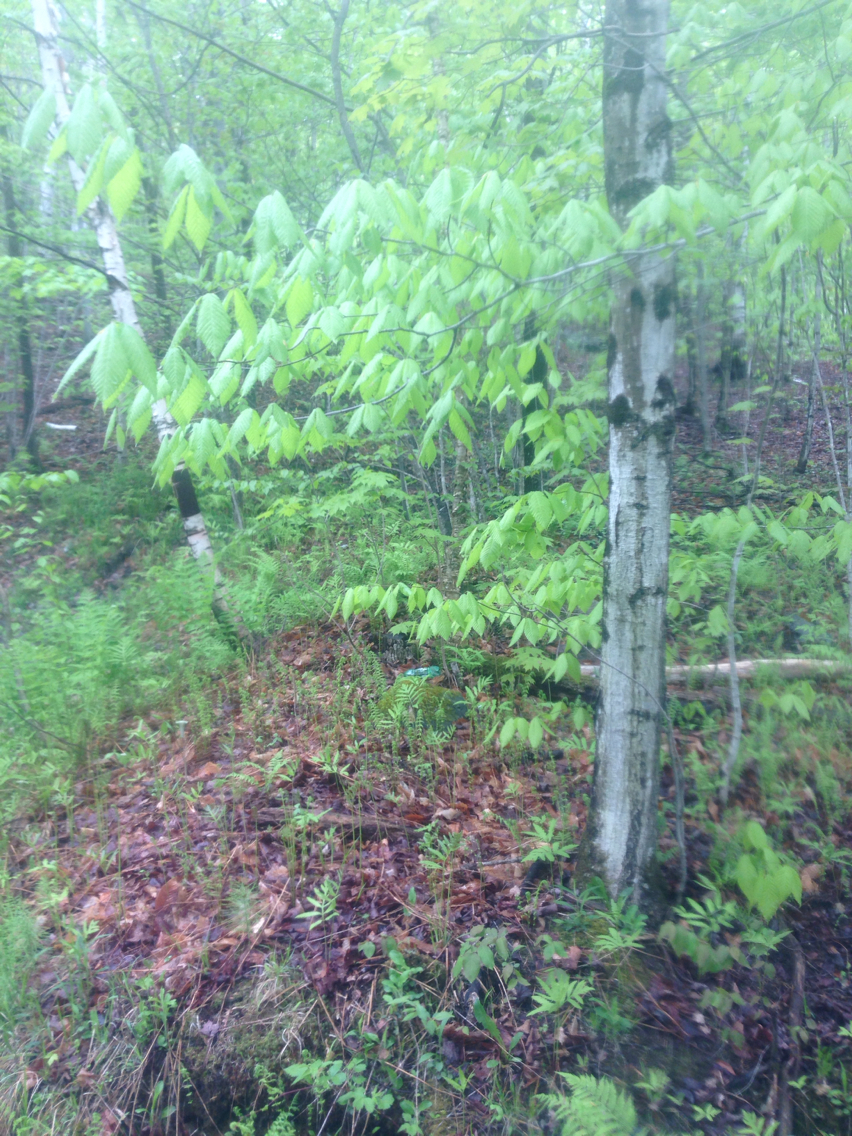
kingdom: Plantae
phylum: Tracheophyta
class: Magnoliopsida
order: Fagales
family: Fagaceae
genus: Fagus
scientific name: Fagus grandifolia
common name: American beech
